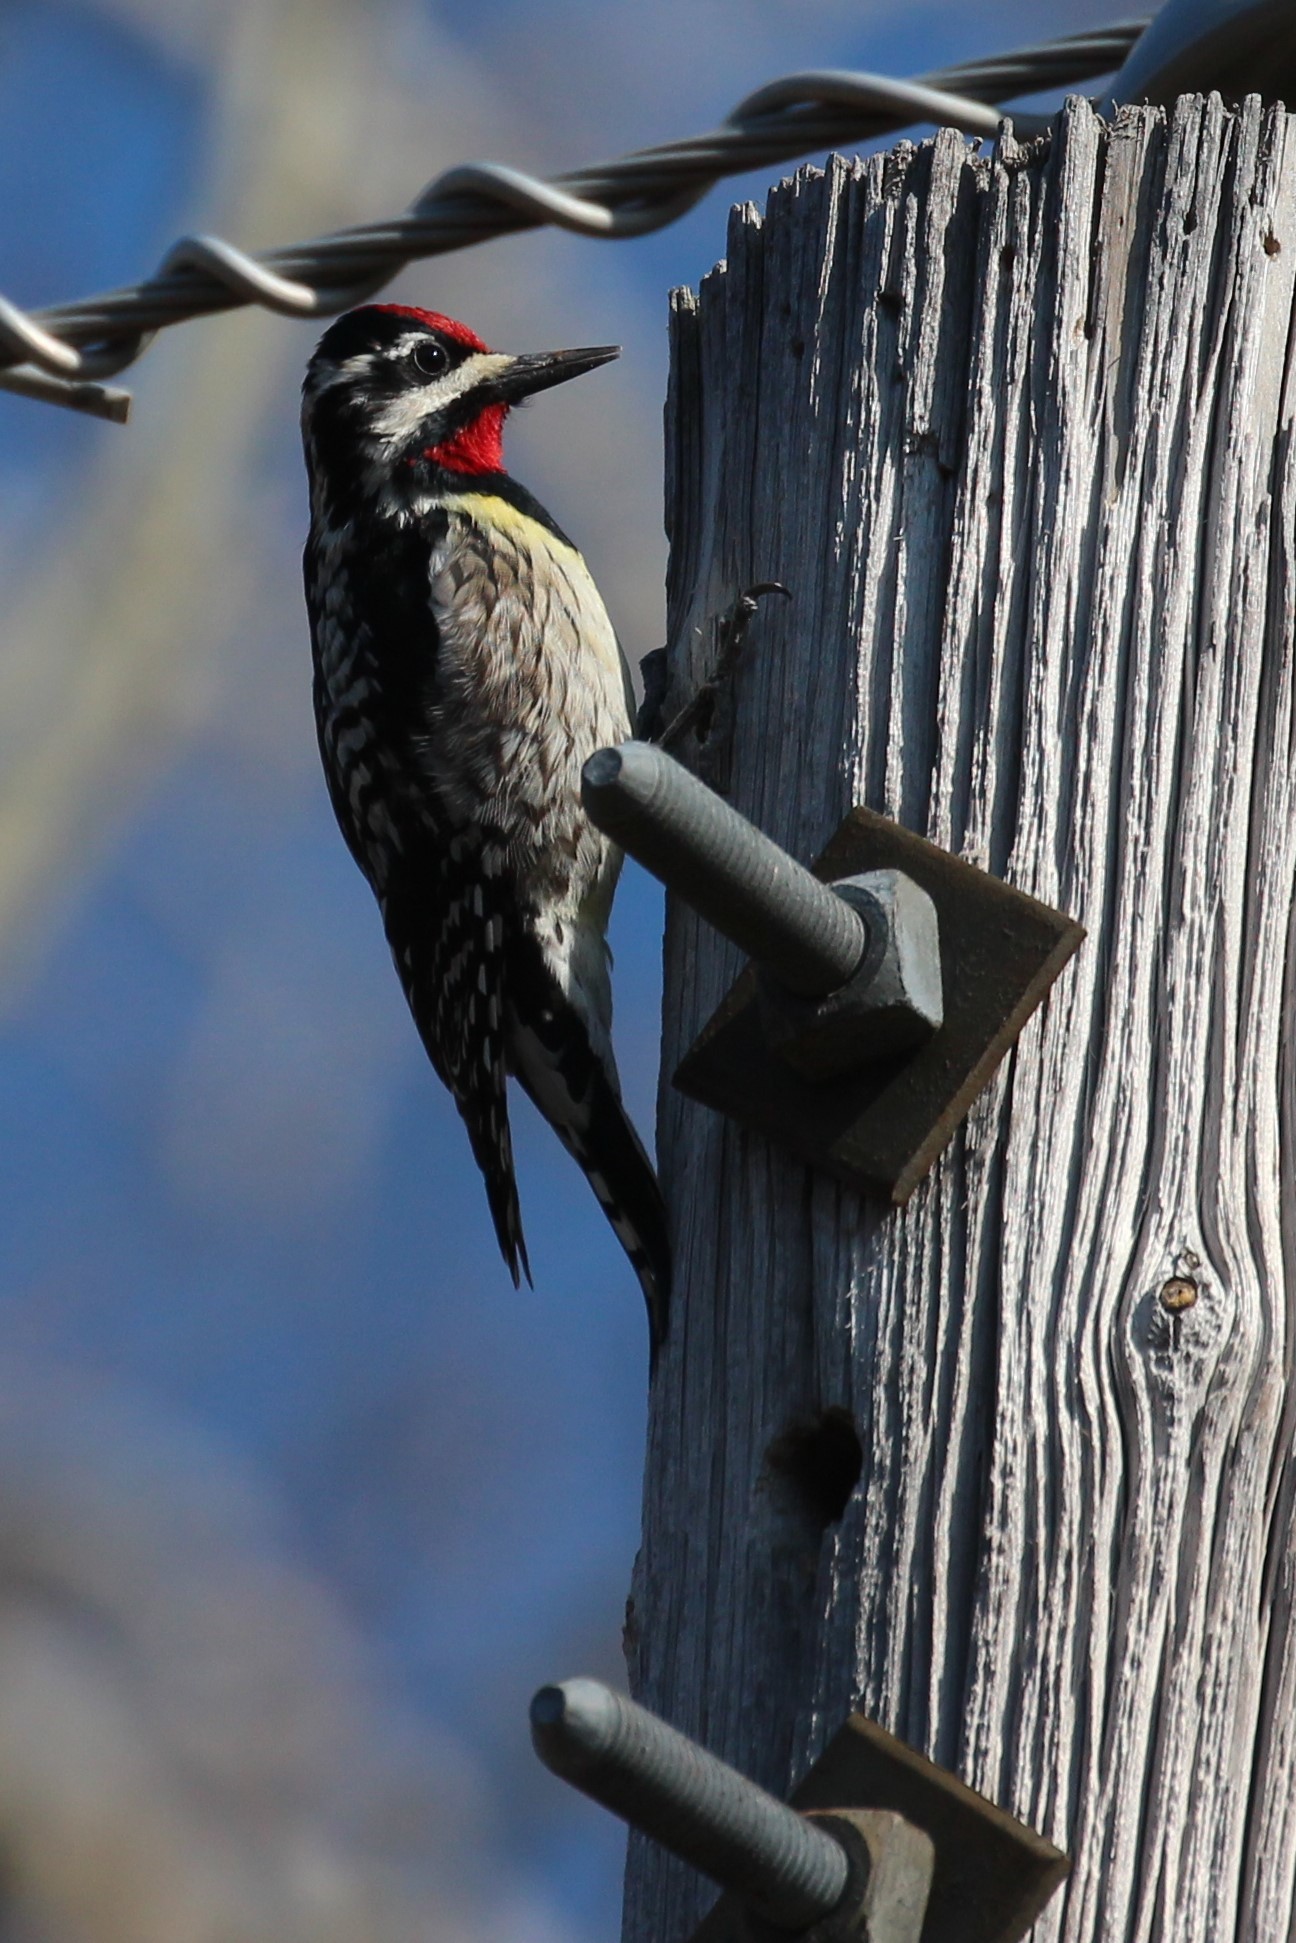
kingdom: Animalia
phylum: Chordata
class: Aves
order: Piciformes
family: Picidae
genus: Sphyrapicus
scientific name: Sphyrapicus varius
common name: Yellow-bellied sapsucker
